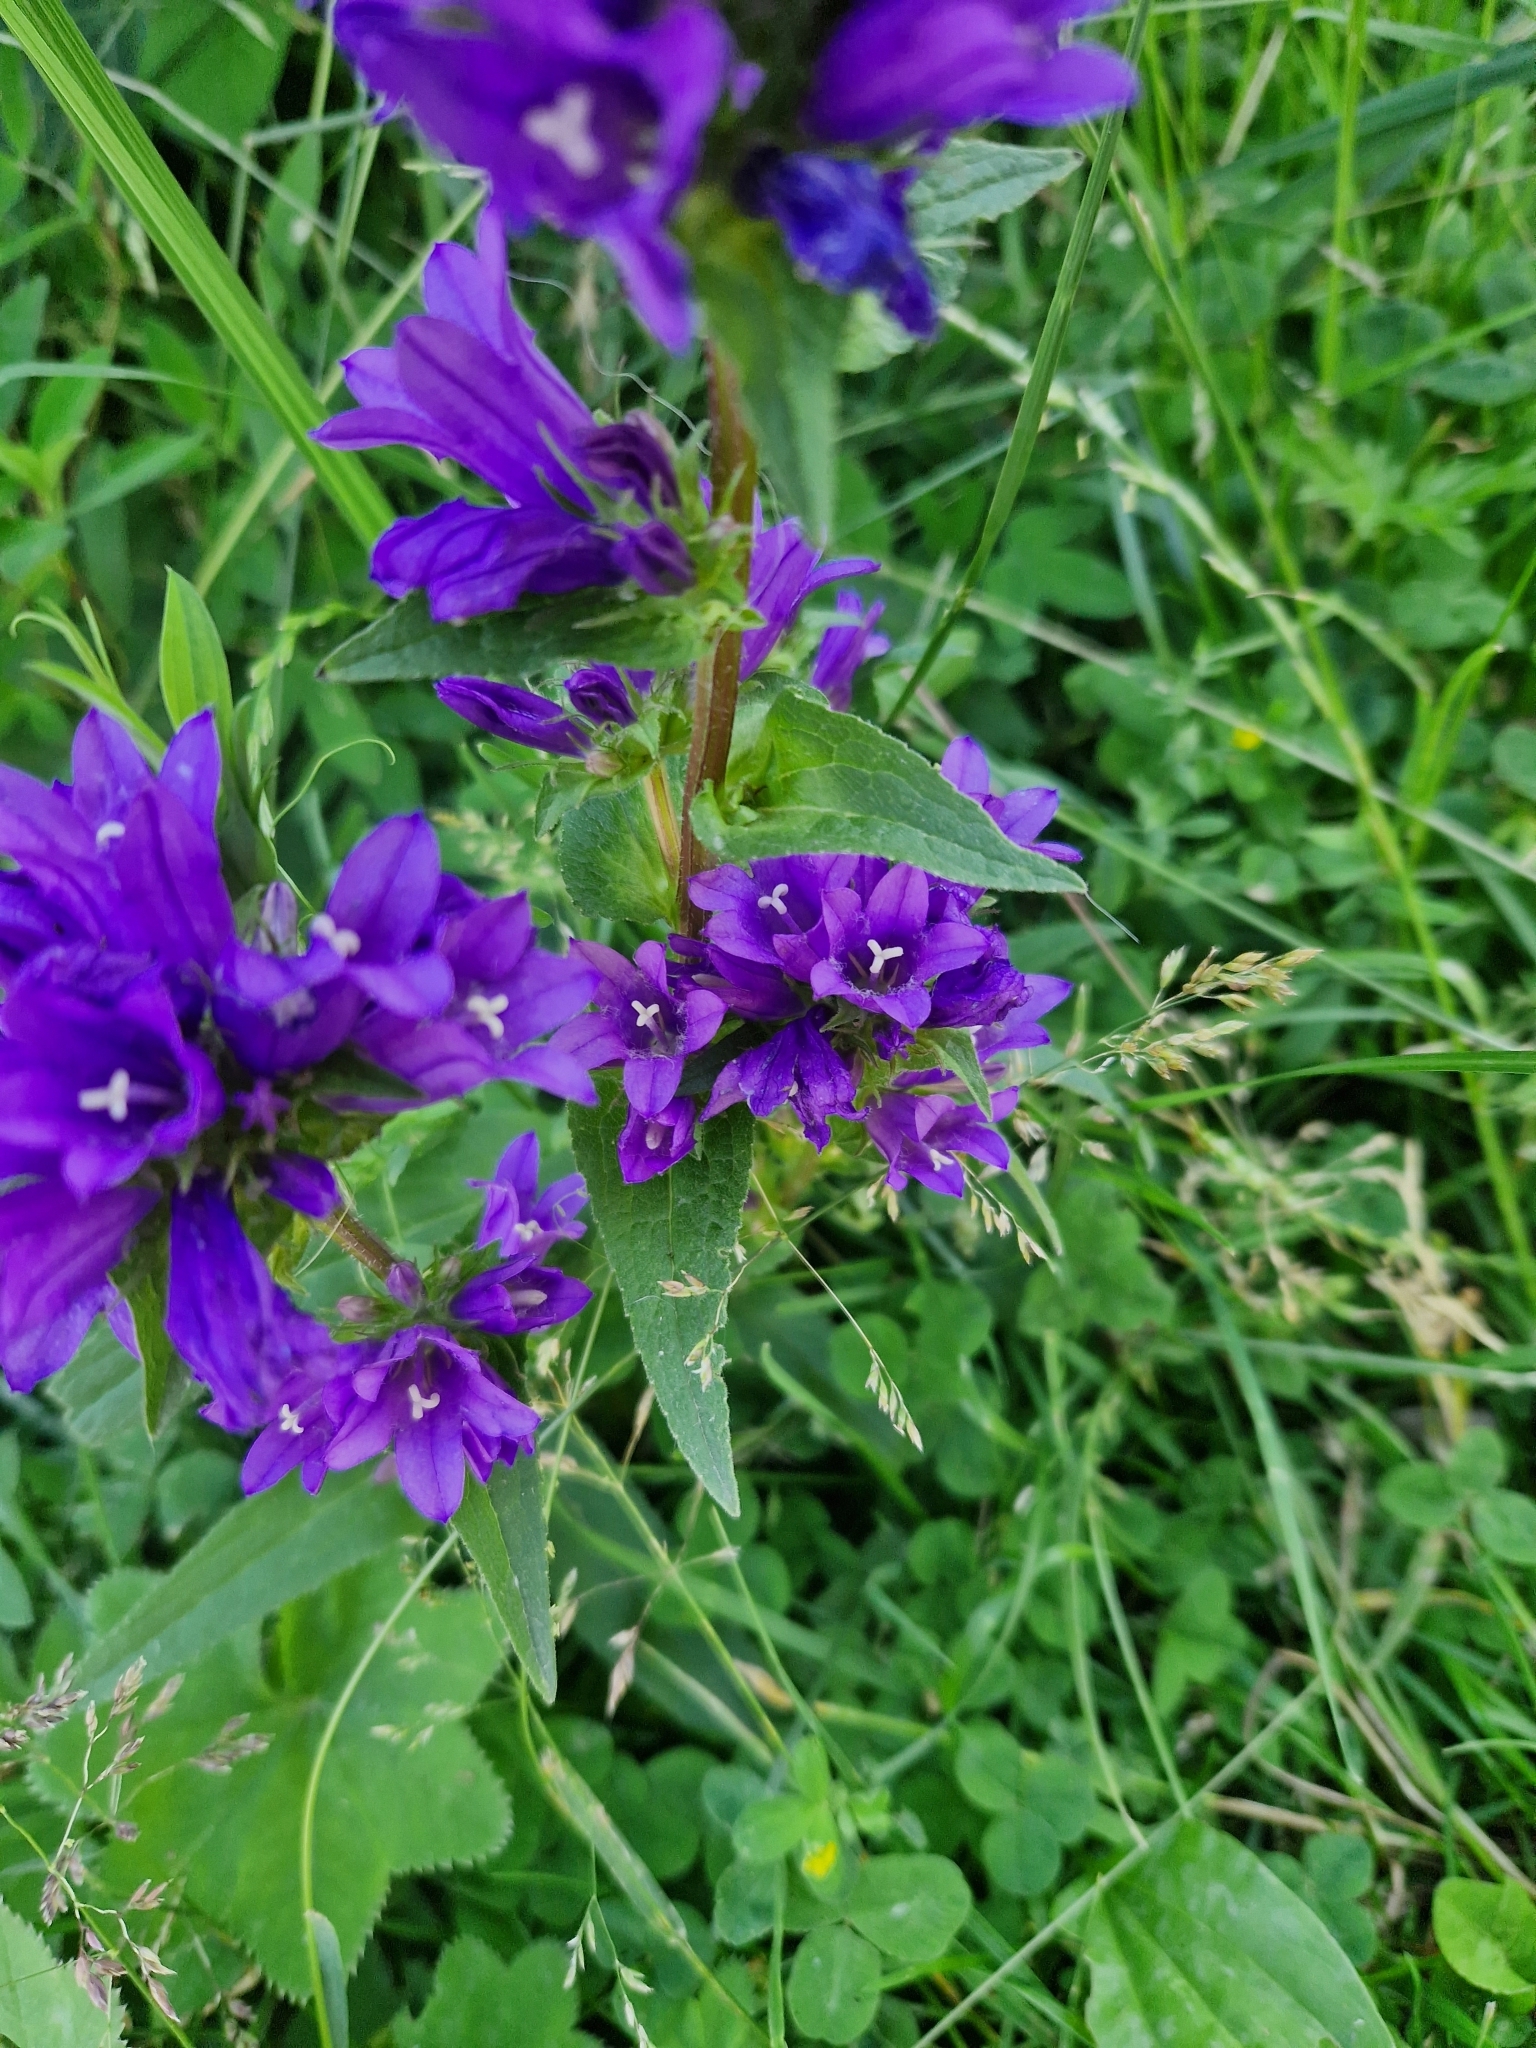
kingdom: Plantae
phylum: Tracheophyta
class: Magnoliopsida
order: Asterales
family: Campanulaceae
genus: Campanula
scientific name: Campanula glomerata
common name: Clustered bellflower
